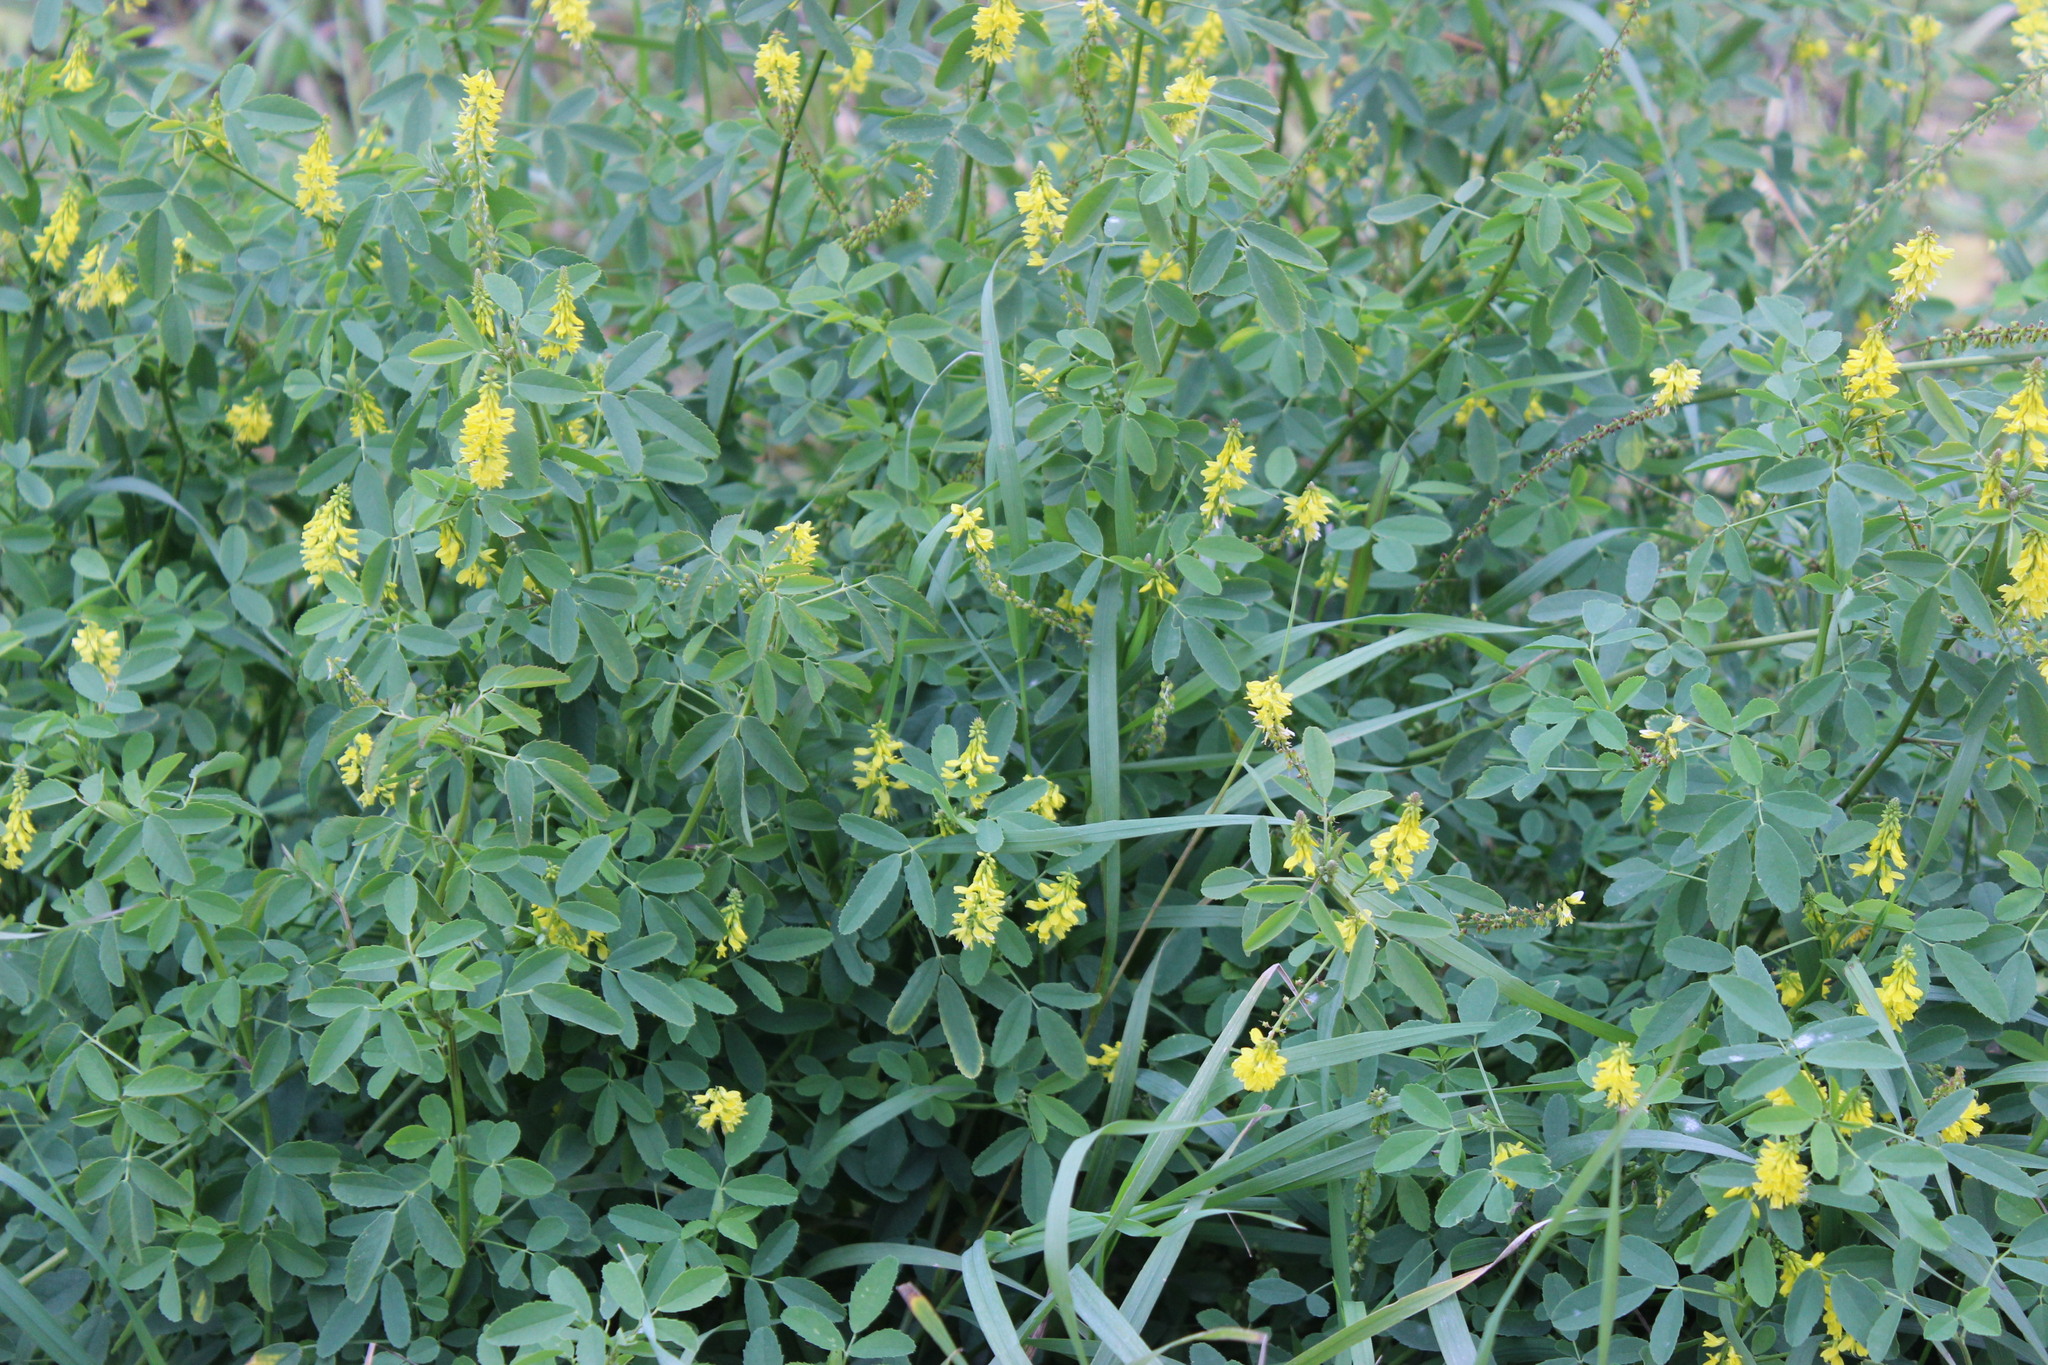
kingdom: Plantae
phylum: Tracheophyta
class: Magnoliopsida
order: Fabales
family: Fabaceae
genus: Melilotus
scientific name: Melilotus officinalis
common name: Sweetclover
